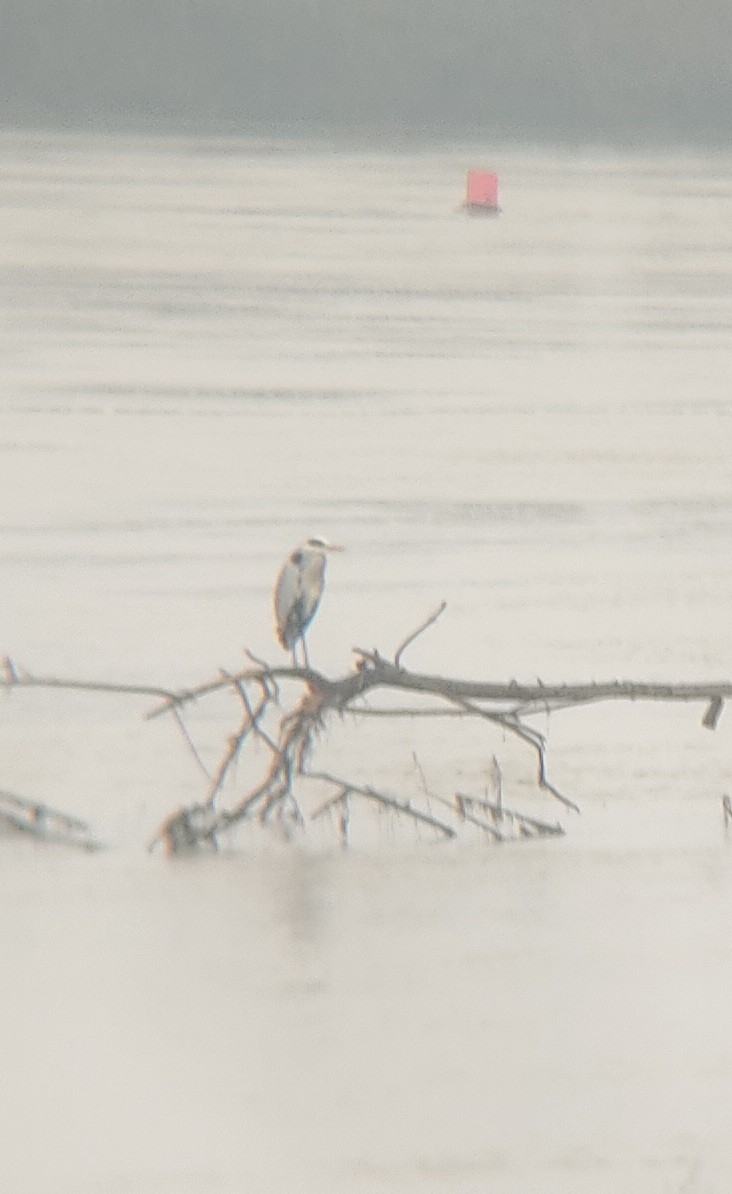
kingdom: Animalia
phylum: Chordata
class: Aves
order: Pelecaniformes
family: Ardeidae
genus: Ardea
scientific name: Ardea cinerea
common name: Grey heron
